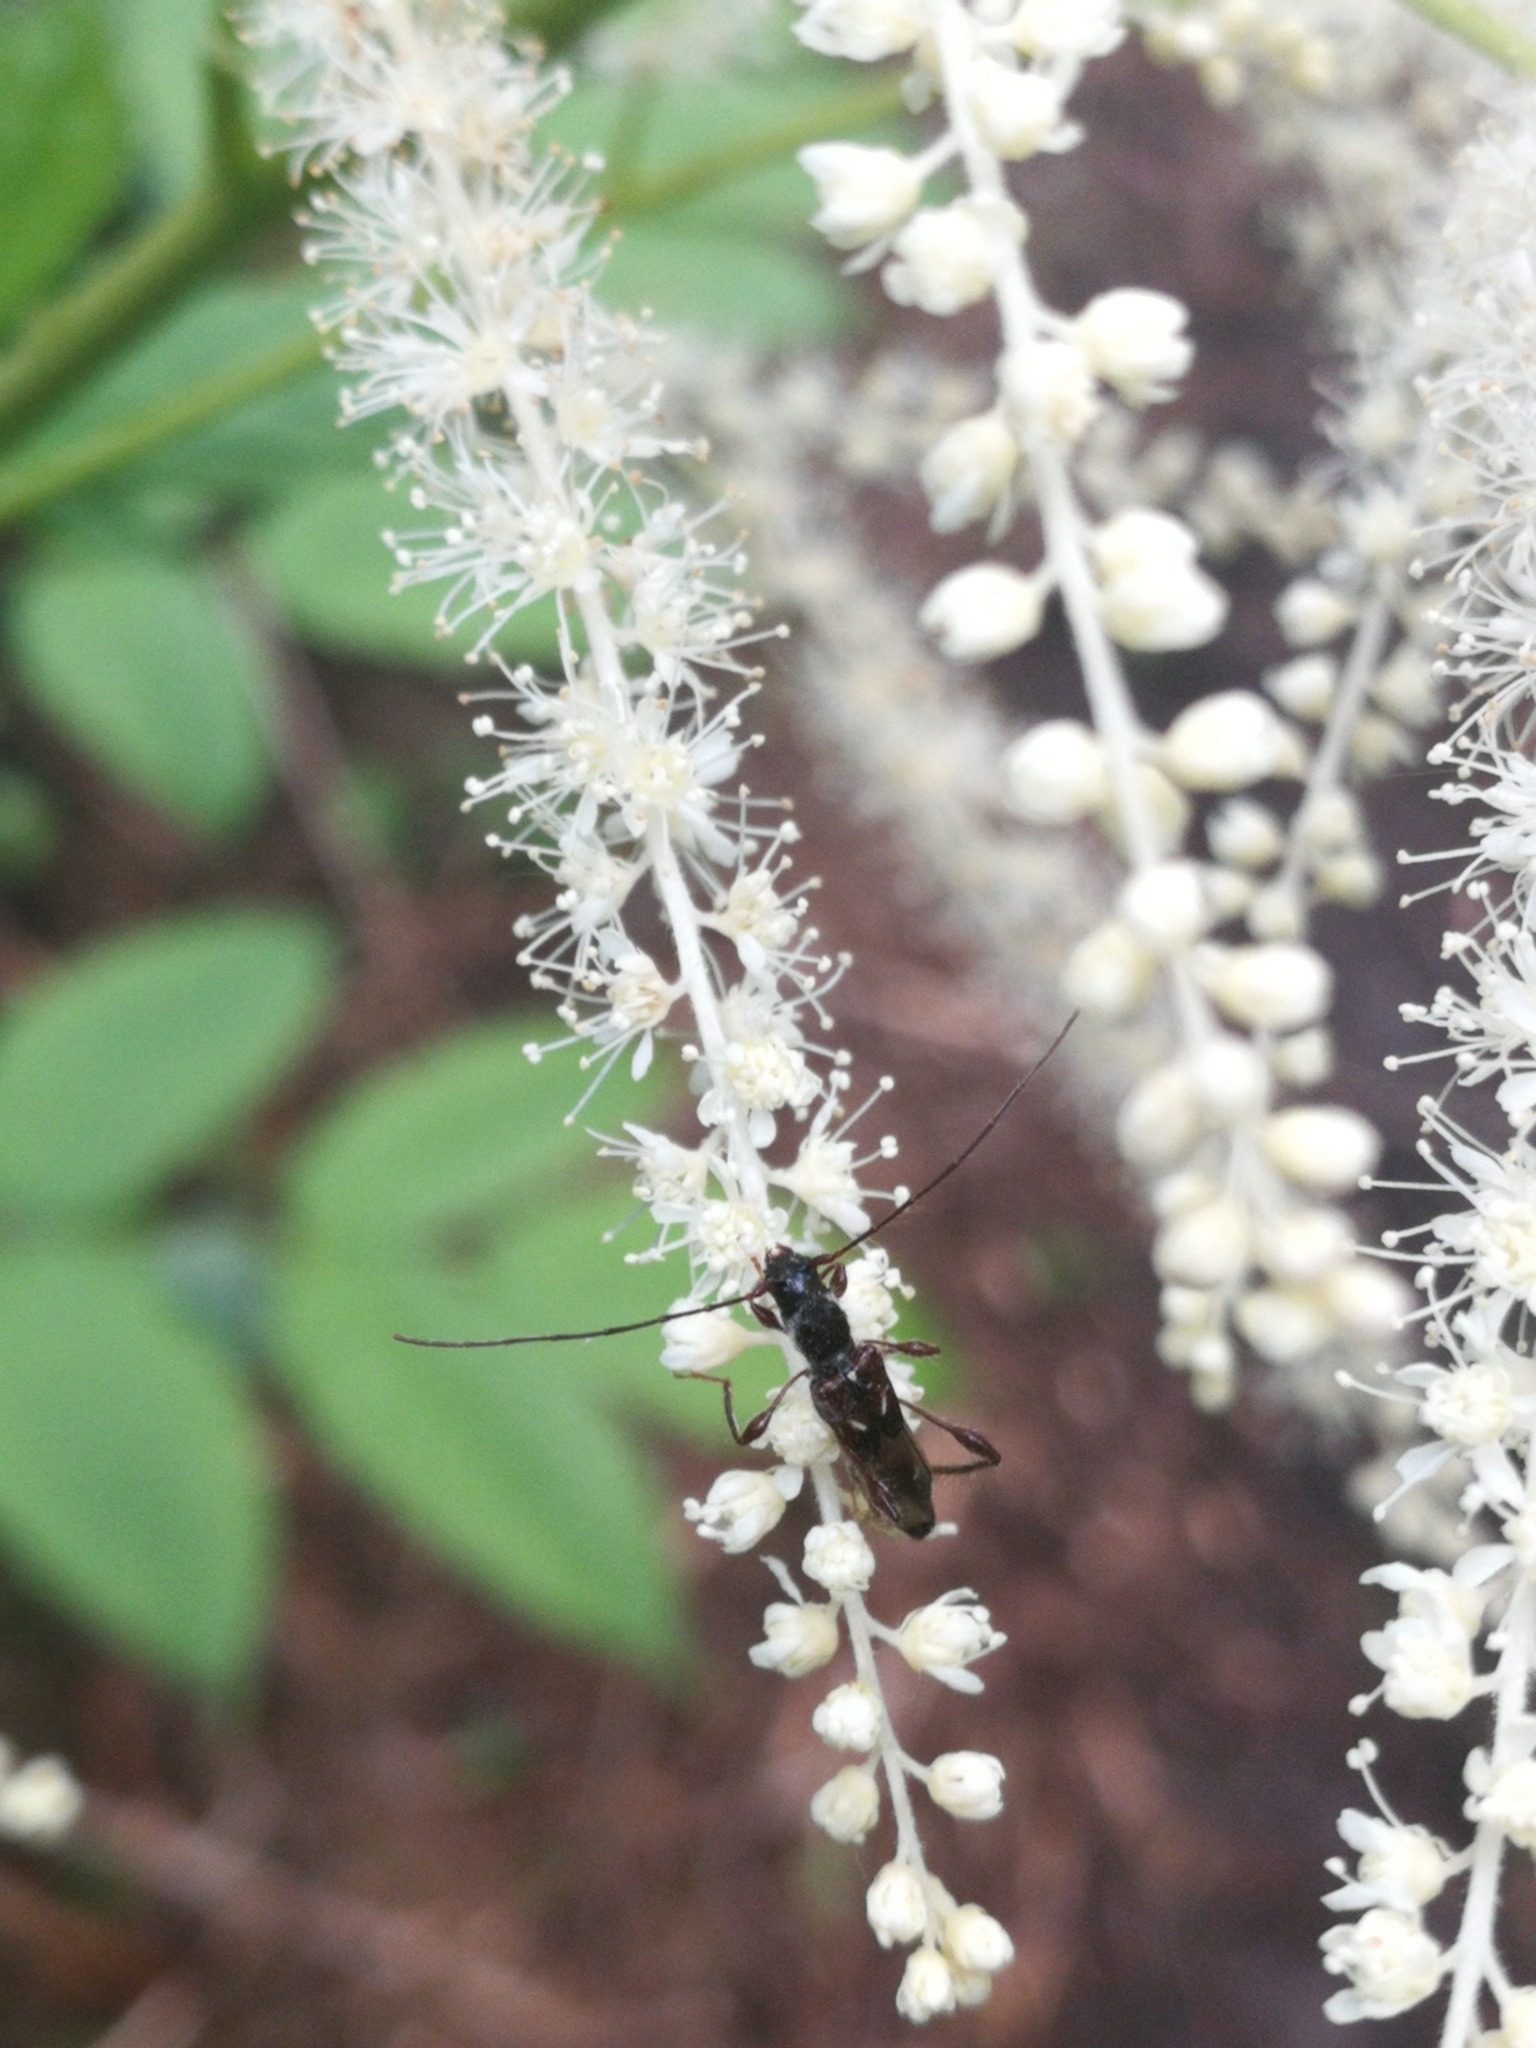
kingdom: Animalia
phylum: Arthropoda
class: Insecta
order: Coleoptera
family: Cerambycidae
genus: Molorchus
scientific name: Molorchus minor
